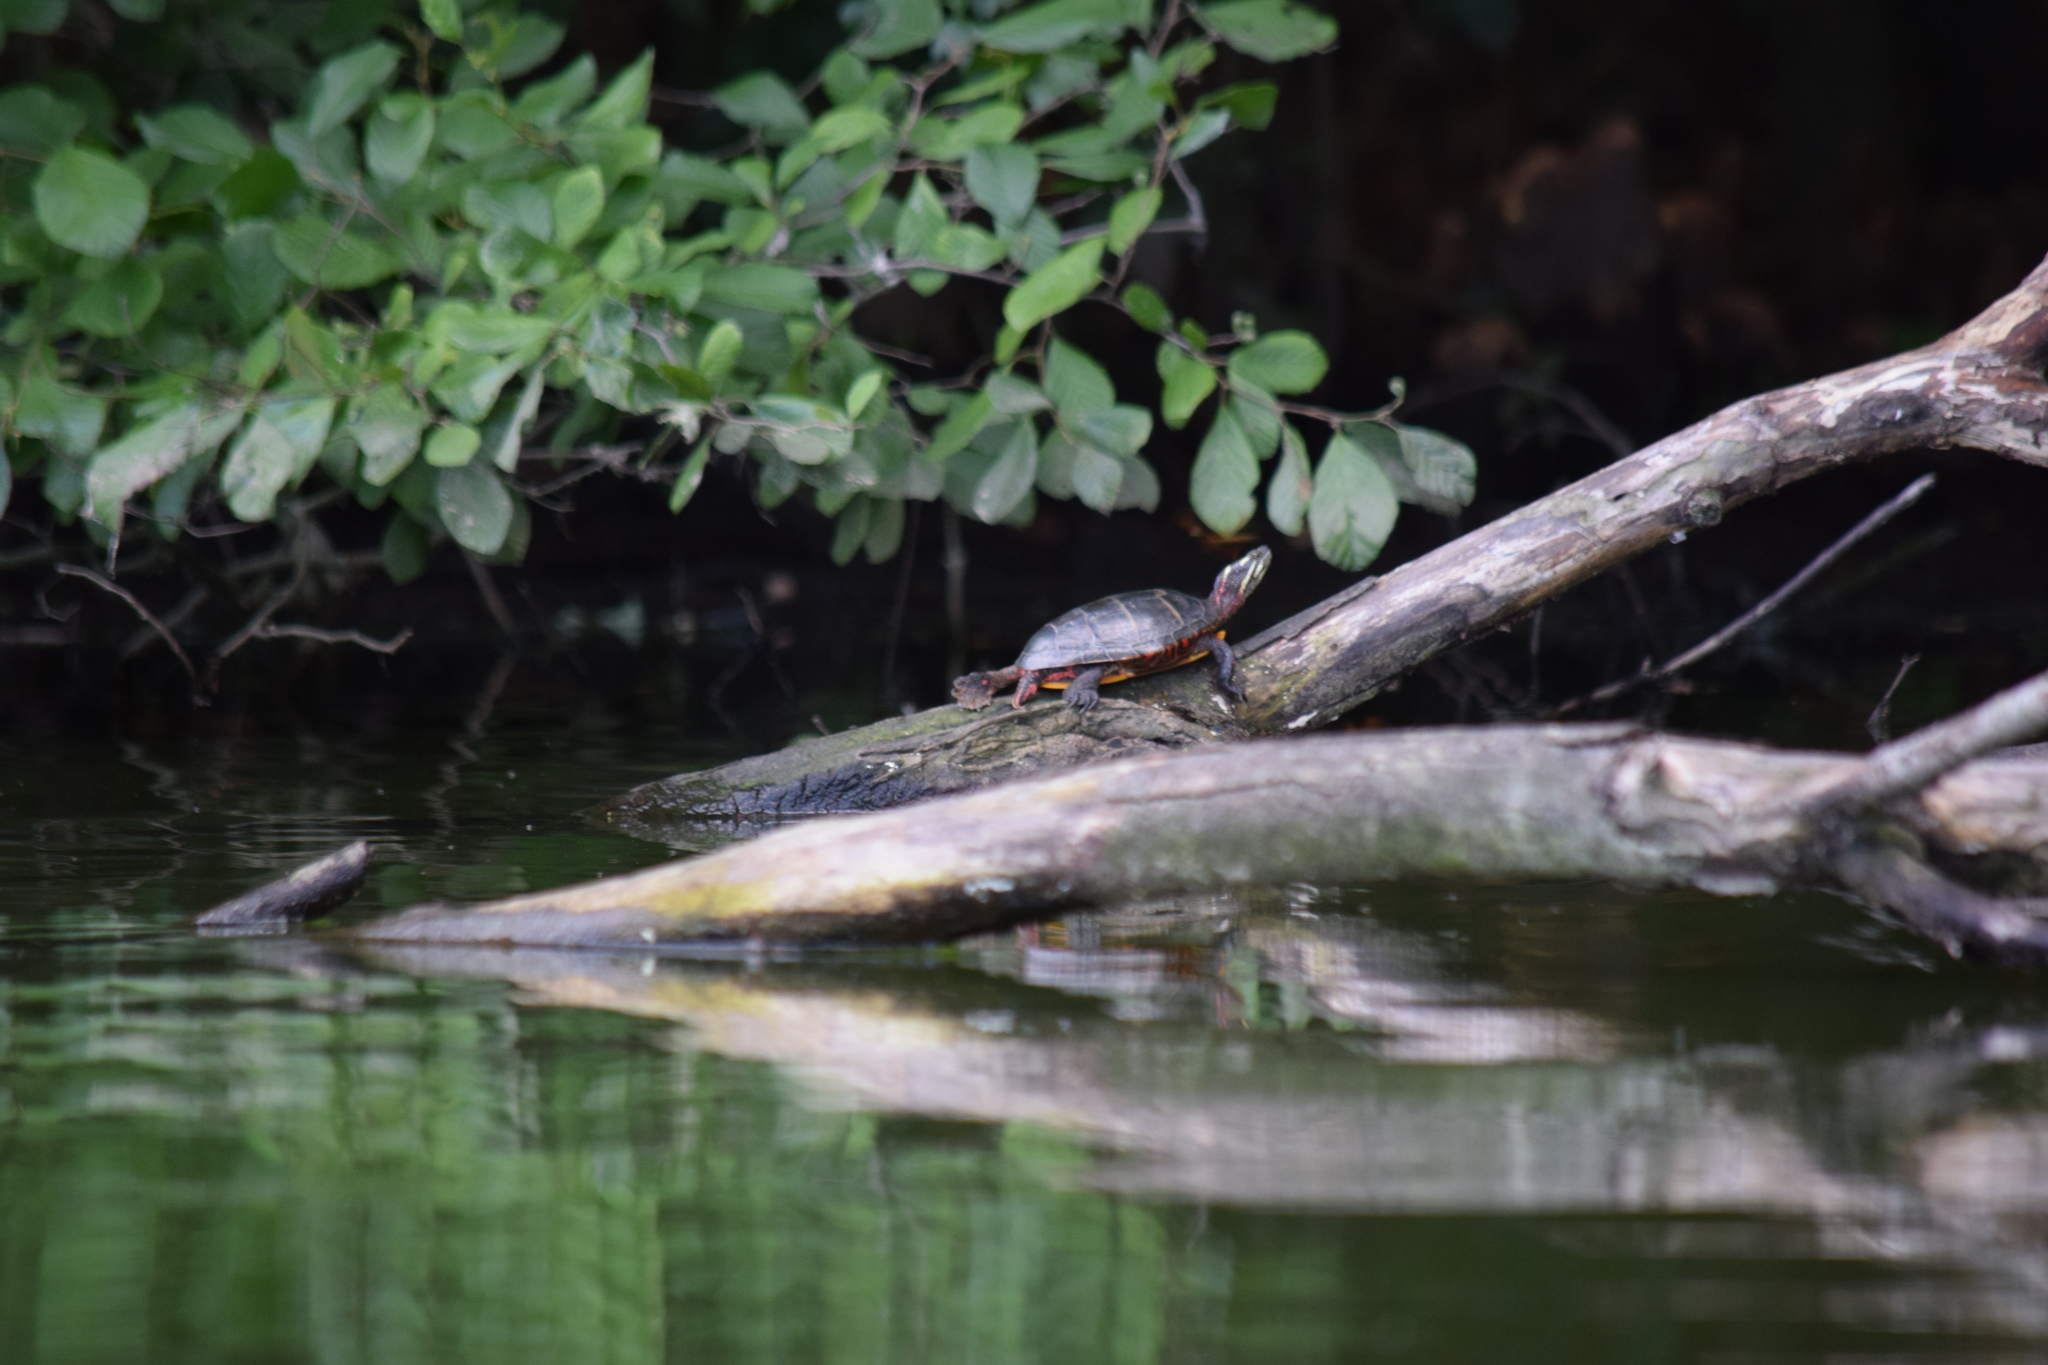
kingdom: Animalia
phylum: Chordata
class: Testudines
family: Emydidae
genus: Chrysemys
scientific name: Chrysemys picta
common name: Painted turtle
